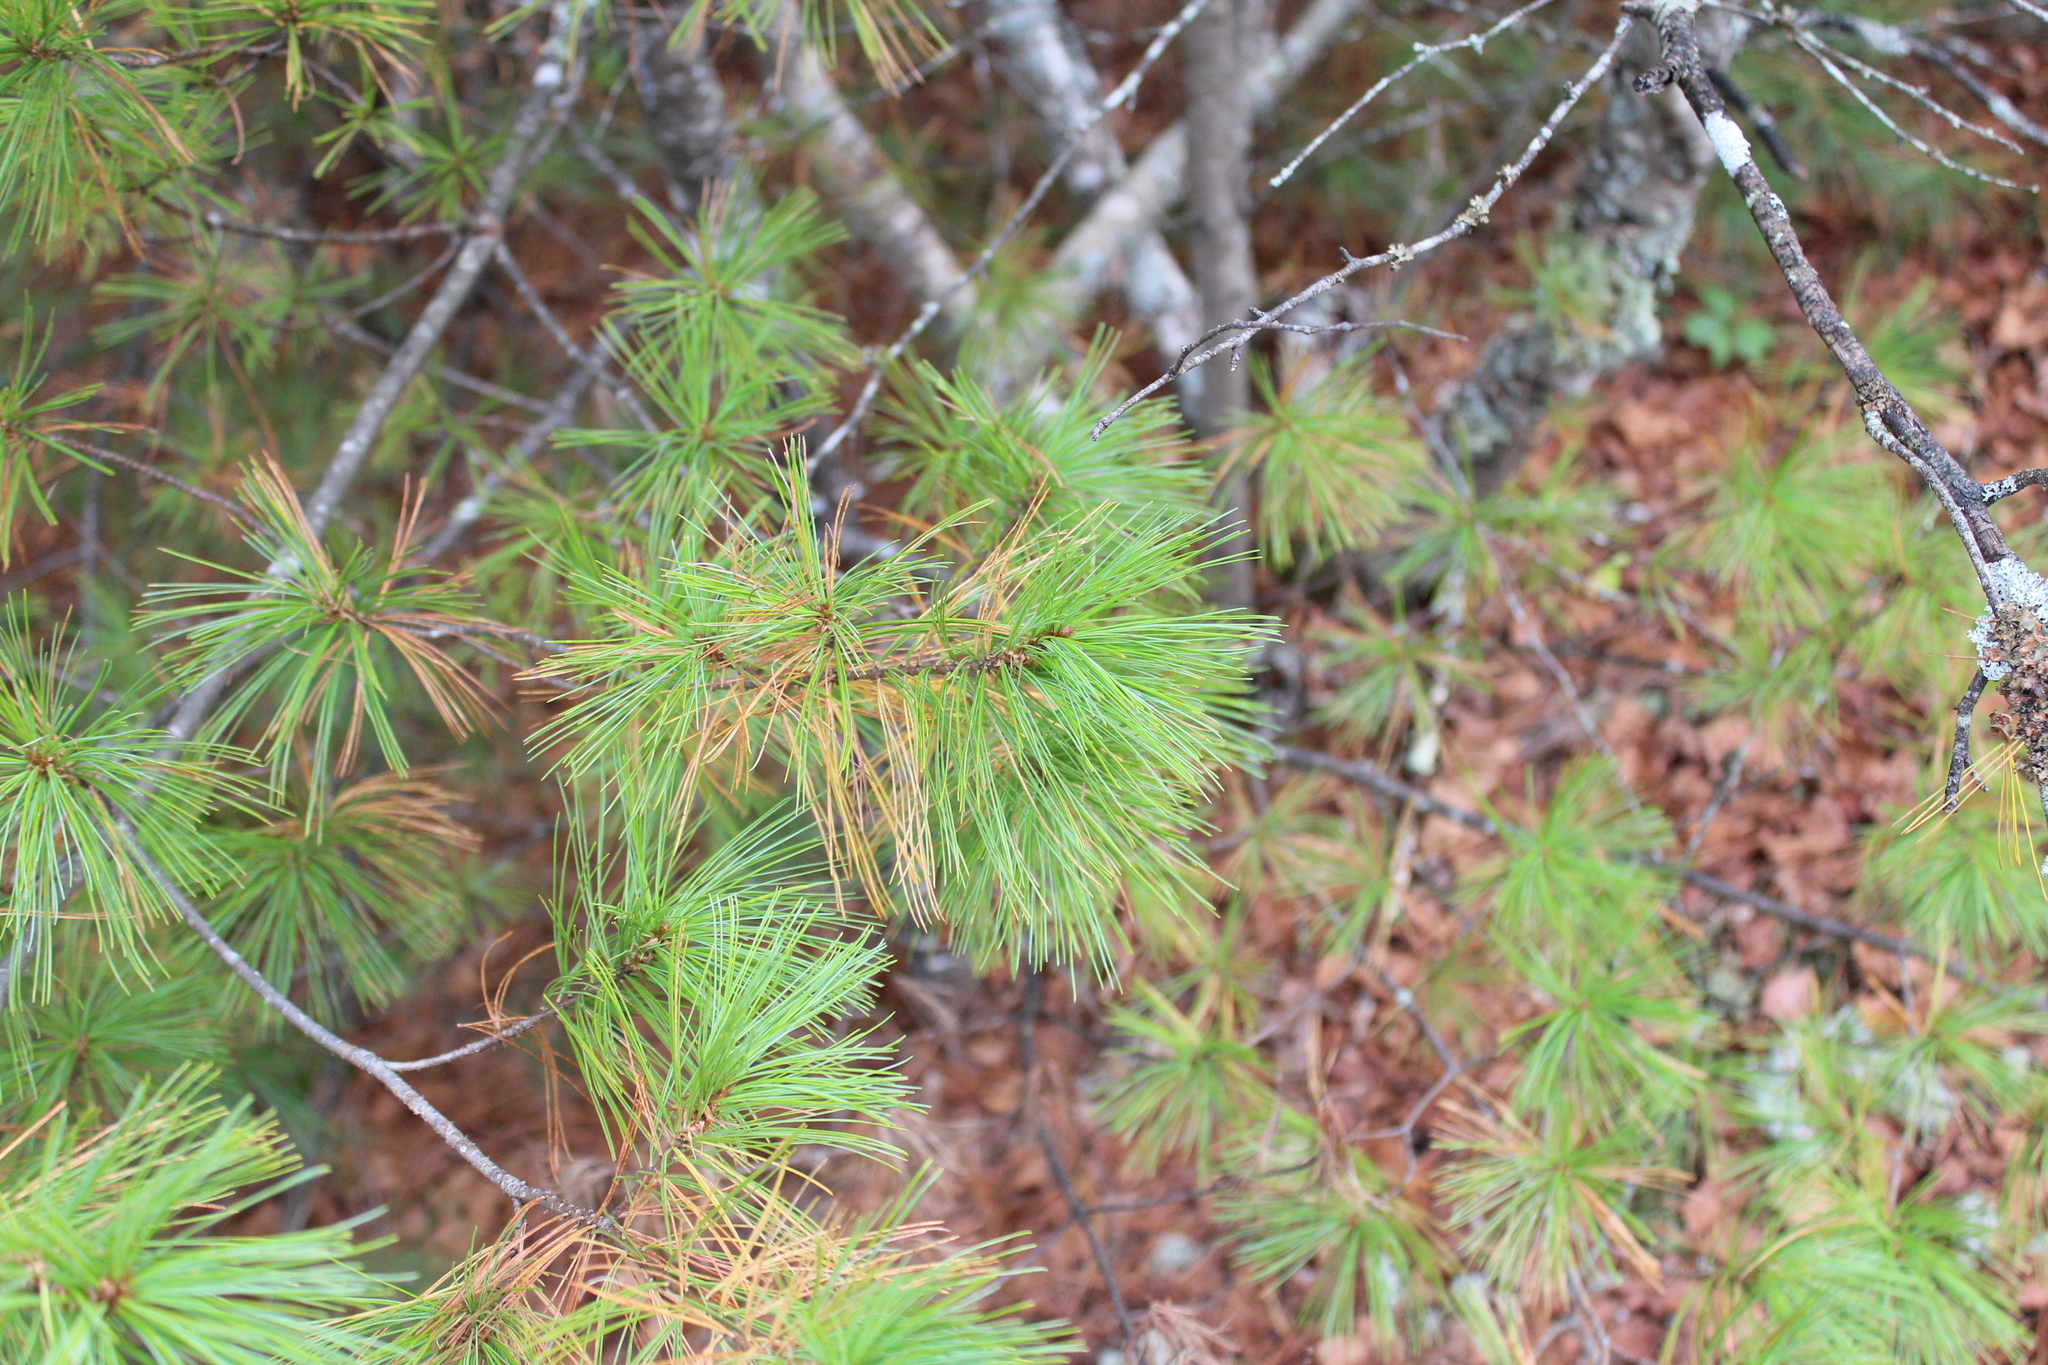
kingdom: Plantae
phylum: Tracheophyta
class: Pinopsida
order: Pinales
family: Pinaceae
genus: Pinus
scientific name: Pinus strobus
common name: Weymouth pine
